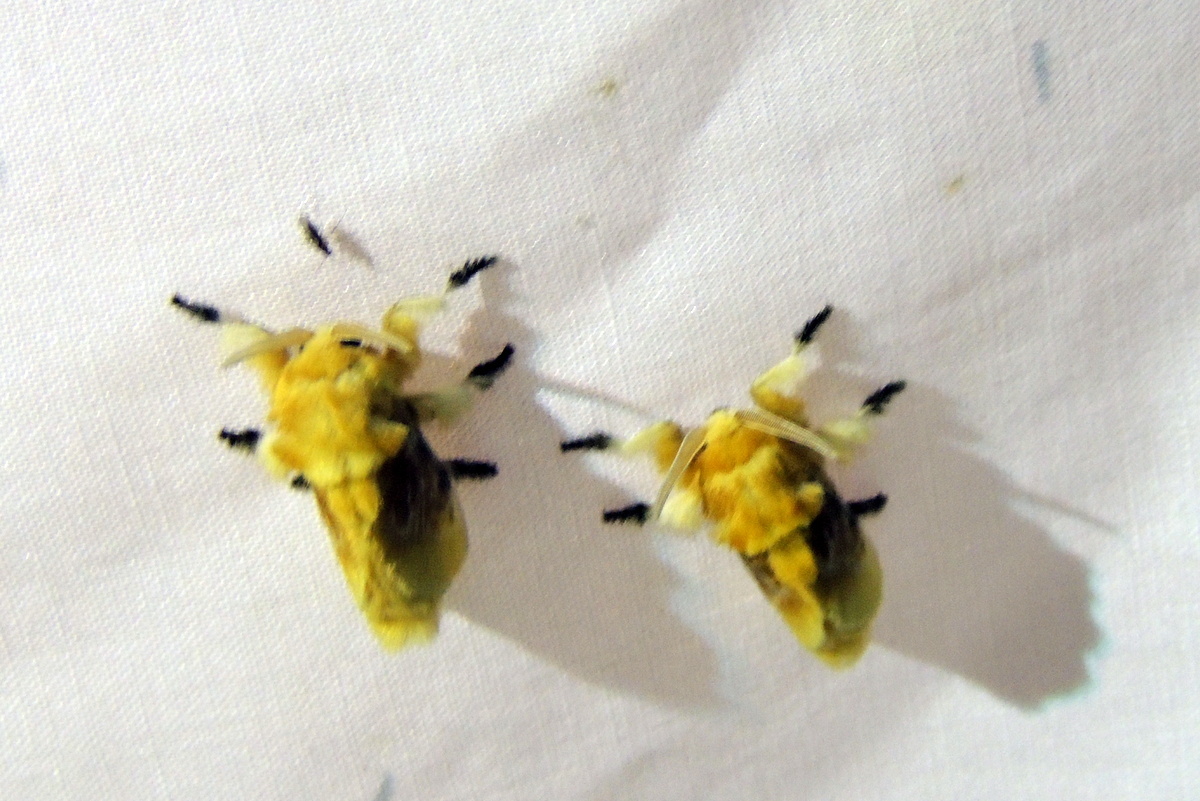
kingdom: Animalia
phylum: Arthropoda
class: Insecta
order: Lepidoptera
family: Megalopygidae
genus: Megalopyge
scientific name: Megalopyge opercularis
